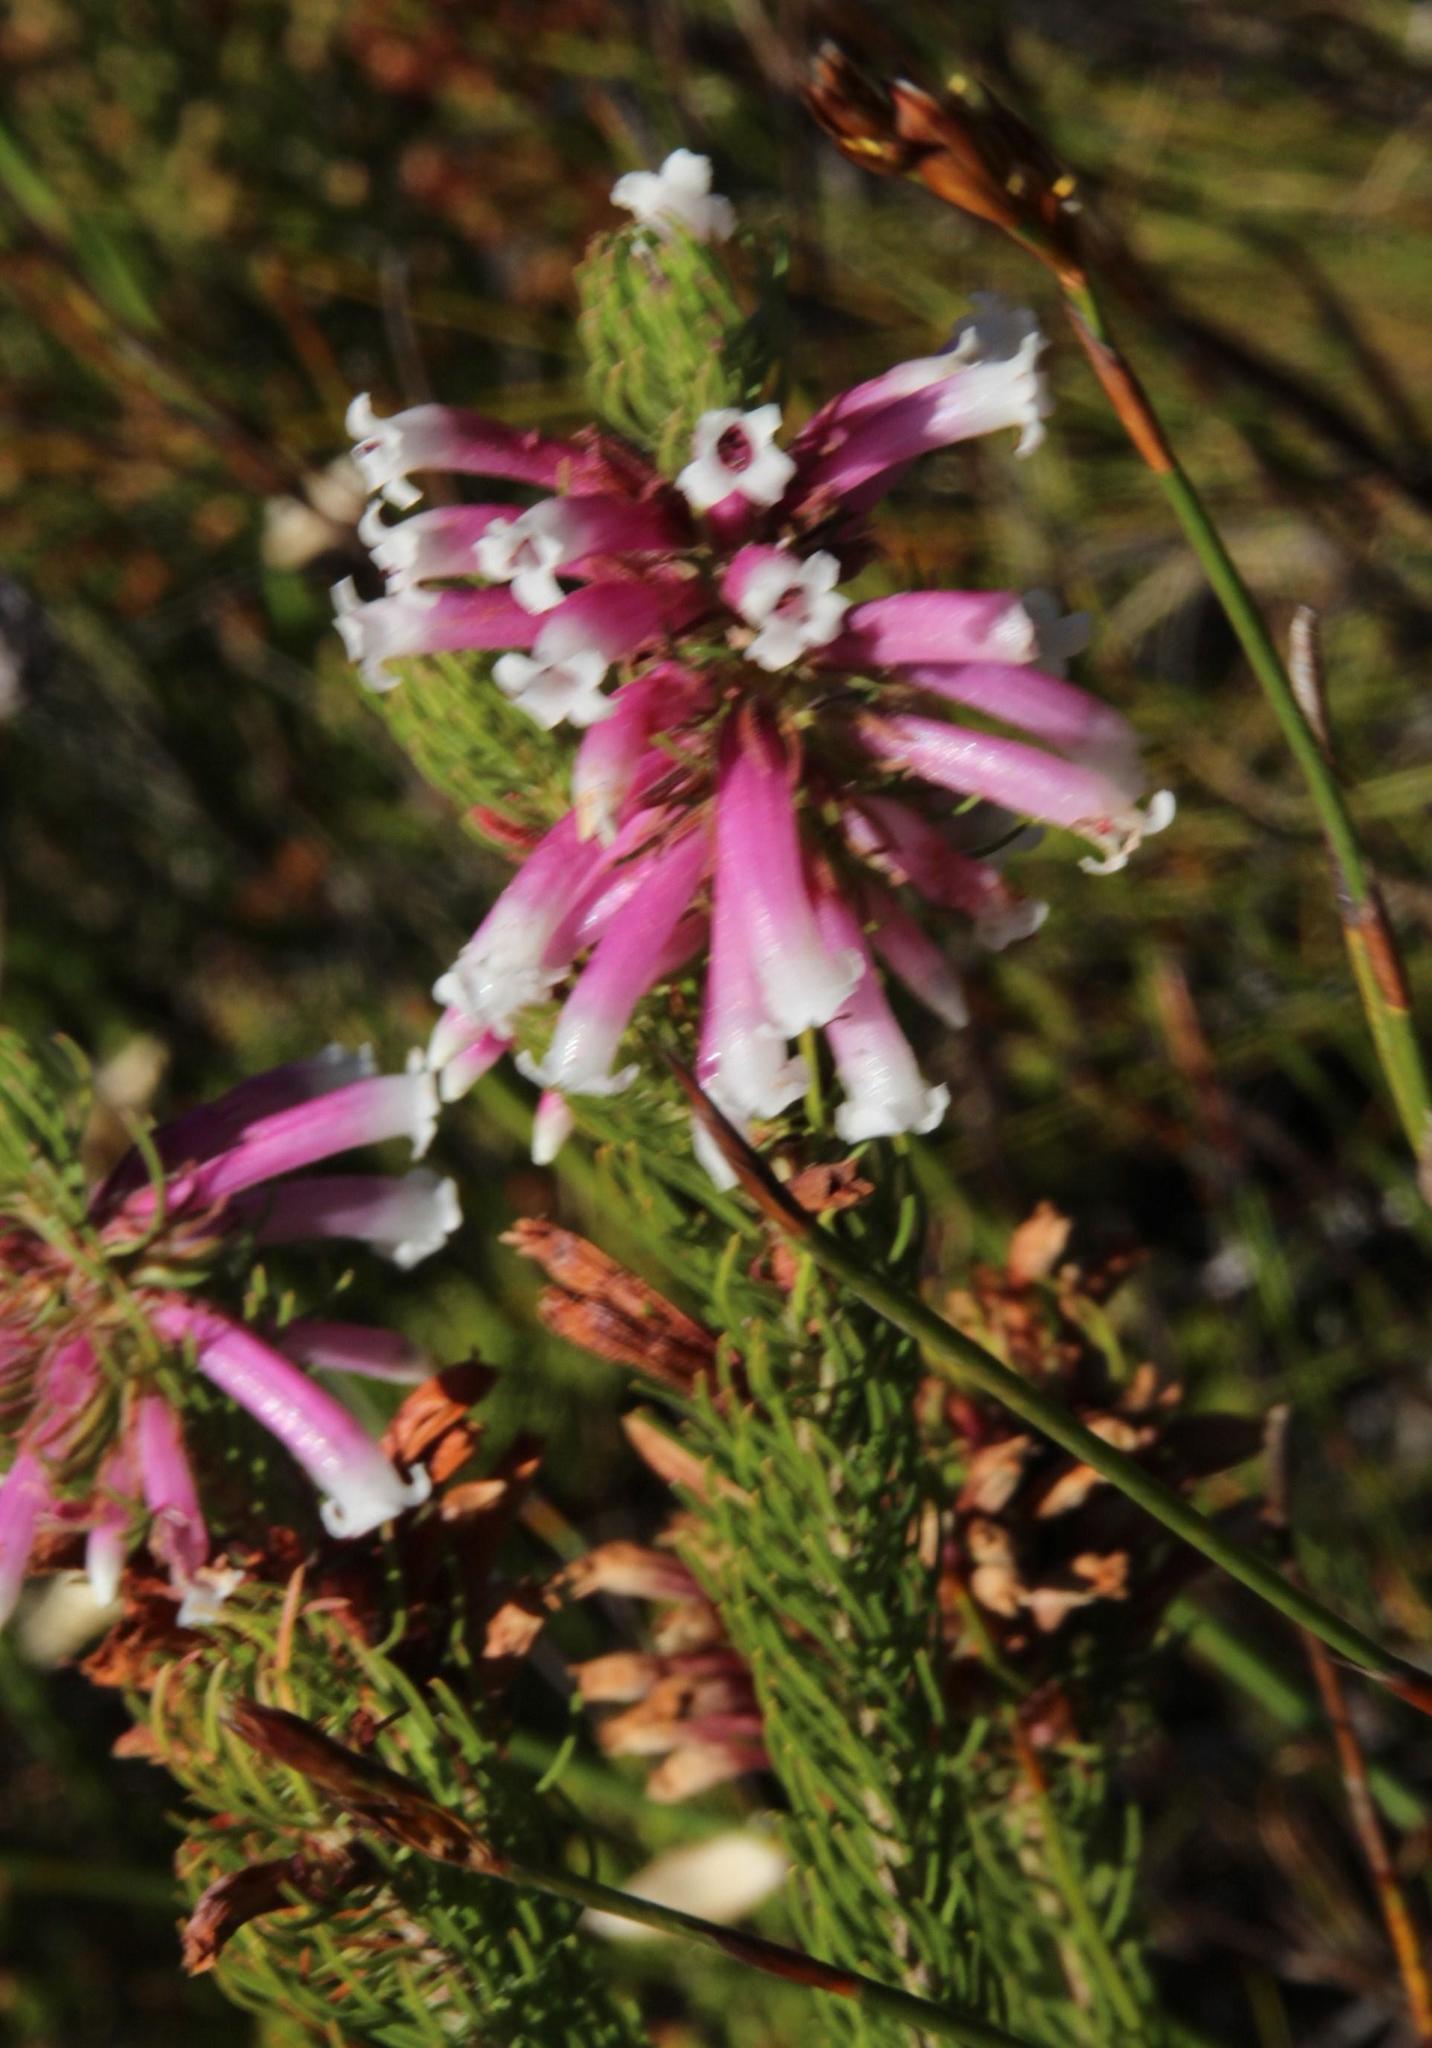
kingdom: Plantae
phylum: Tracheophyta
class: Magnoliopsida
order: Ericales
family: Ericaceae
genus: Erica
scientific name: Erica viscaria
